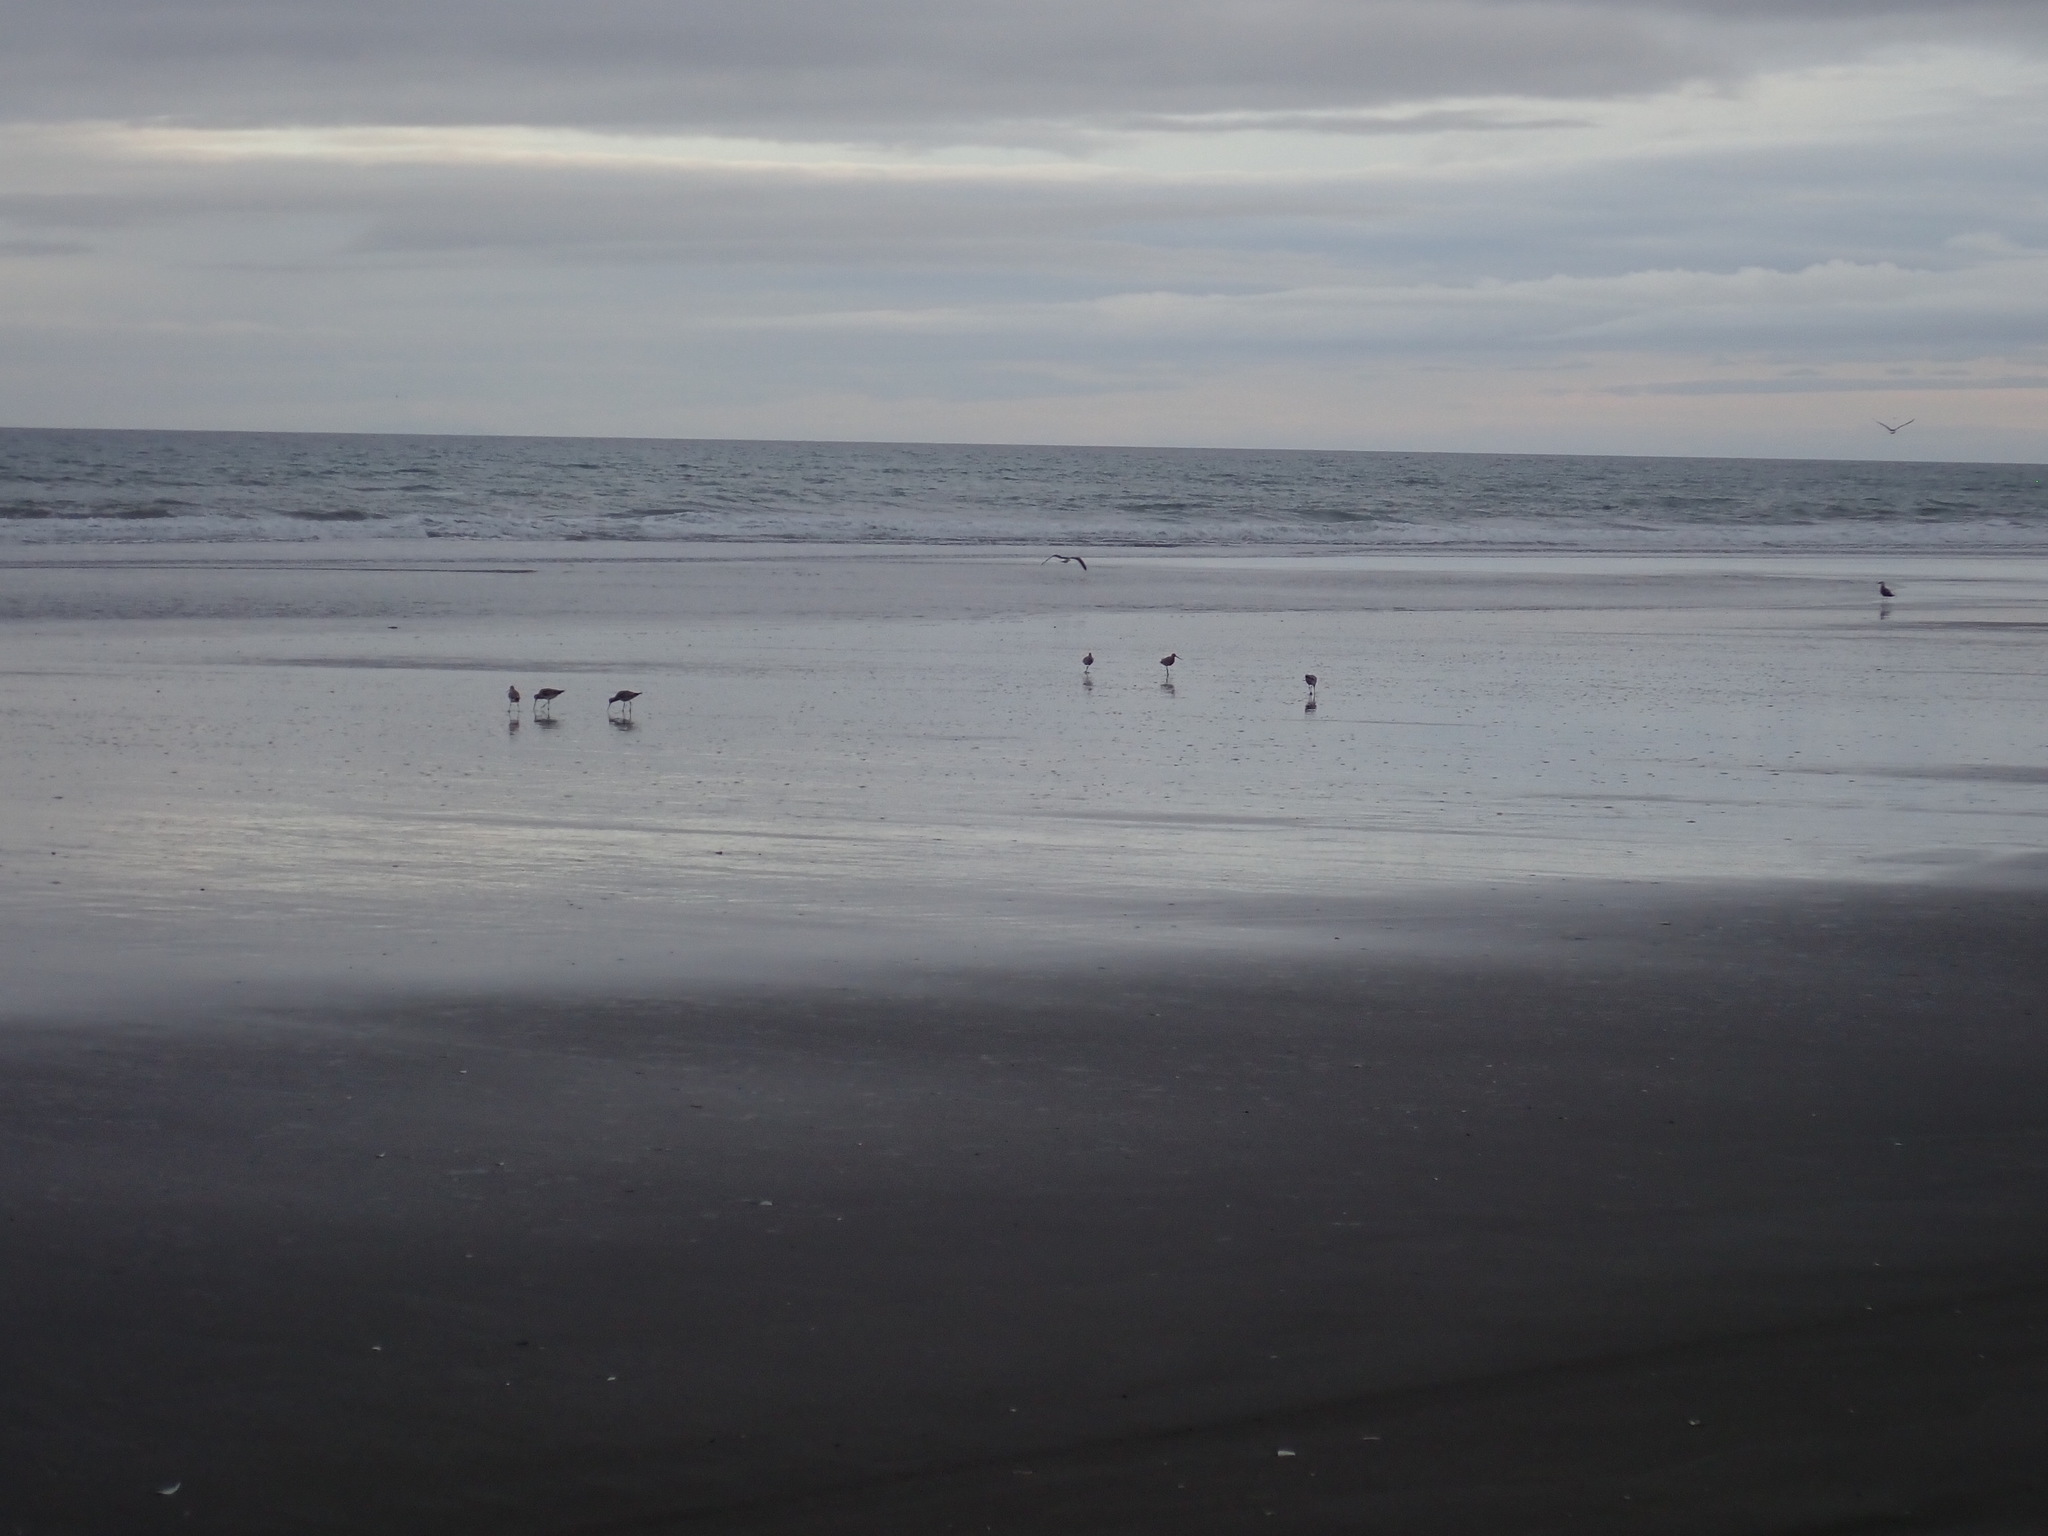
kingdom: Animalia
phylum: Chordata
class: Aves
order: Charadriiformes
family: Scolopacidae
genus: Limosa
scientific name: Limosa lapponica
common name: Bar-tailed godwit
